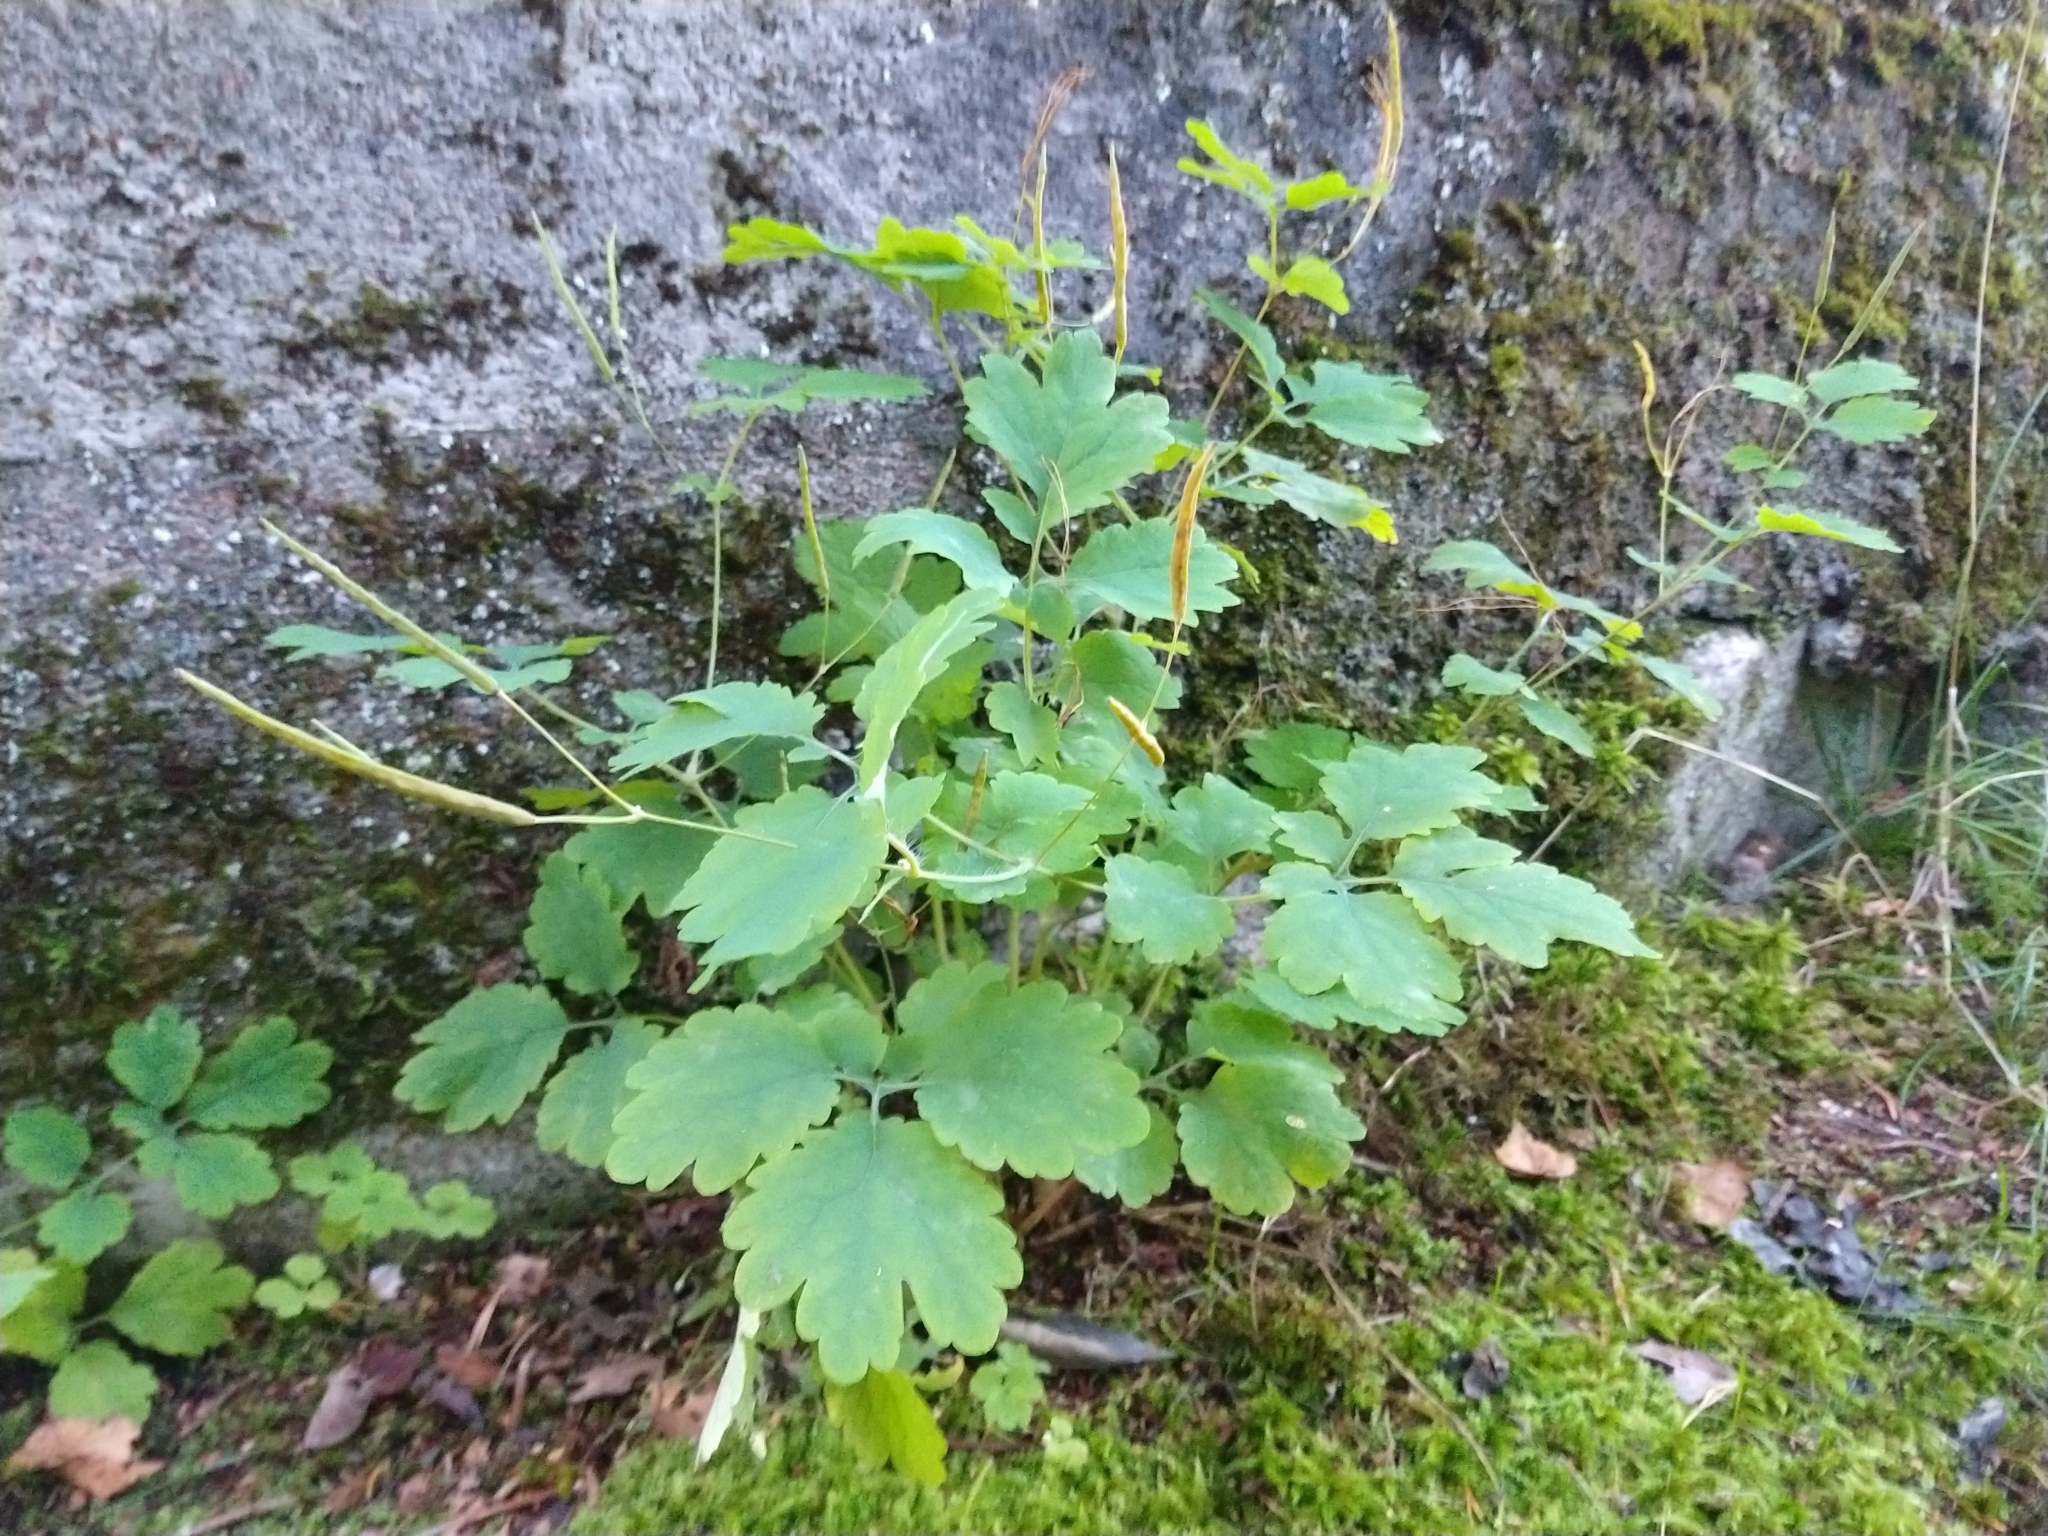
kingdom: Plantae
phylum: Tracheophyta
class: Magnoliopsida
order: Ranunculales
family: Papaveraceae
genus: Chelidonium
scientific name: Chelidonium majus
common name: Greater celandine
